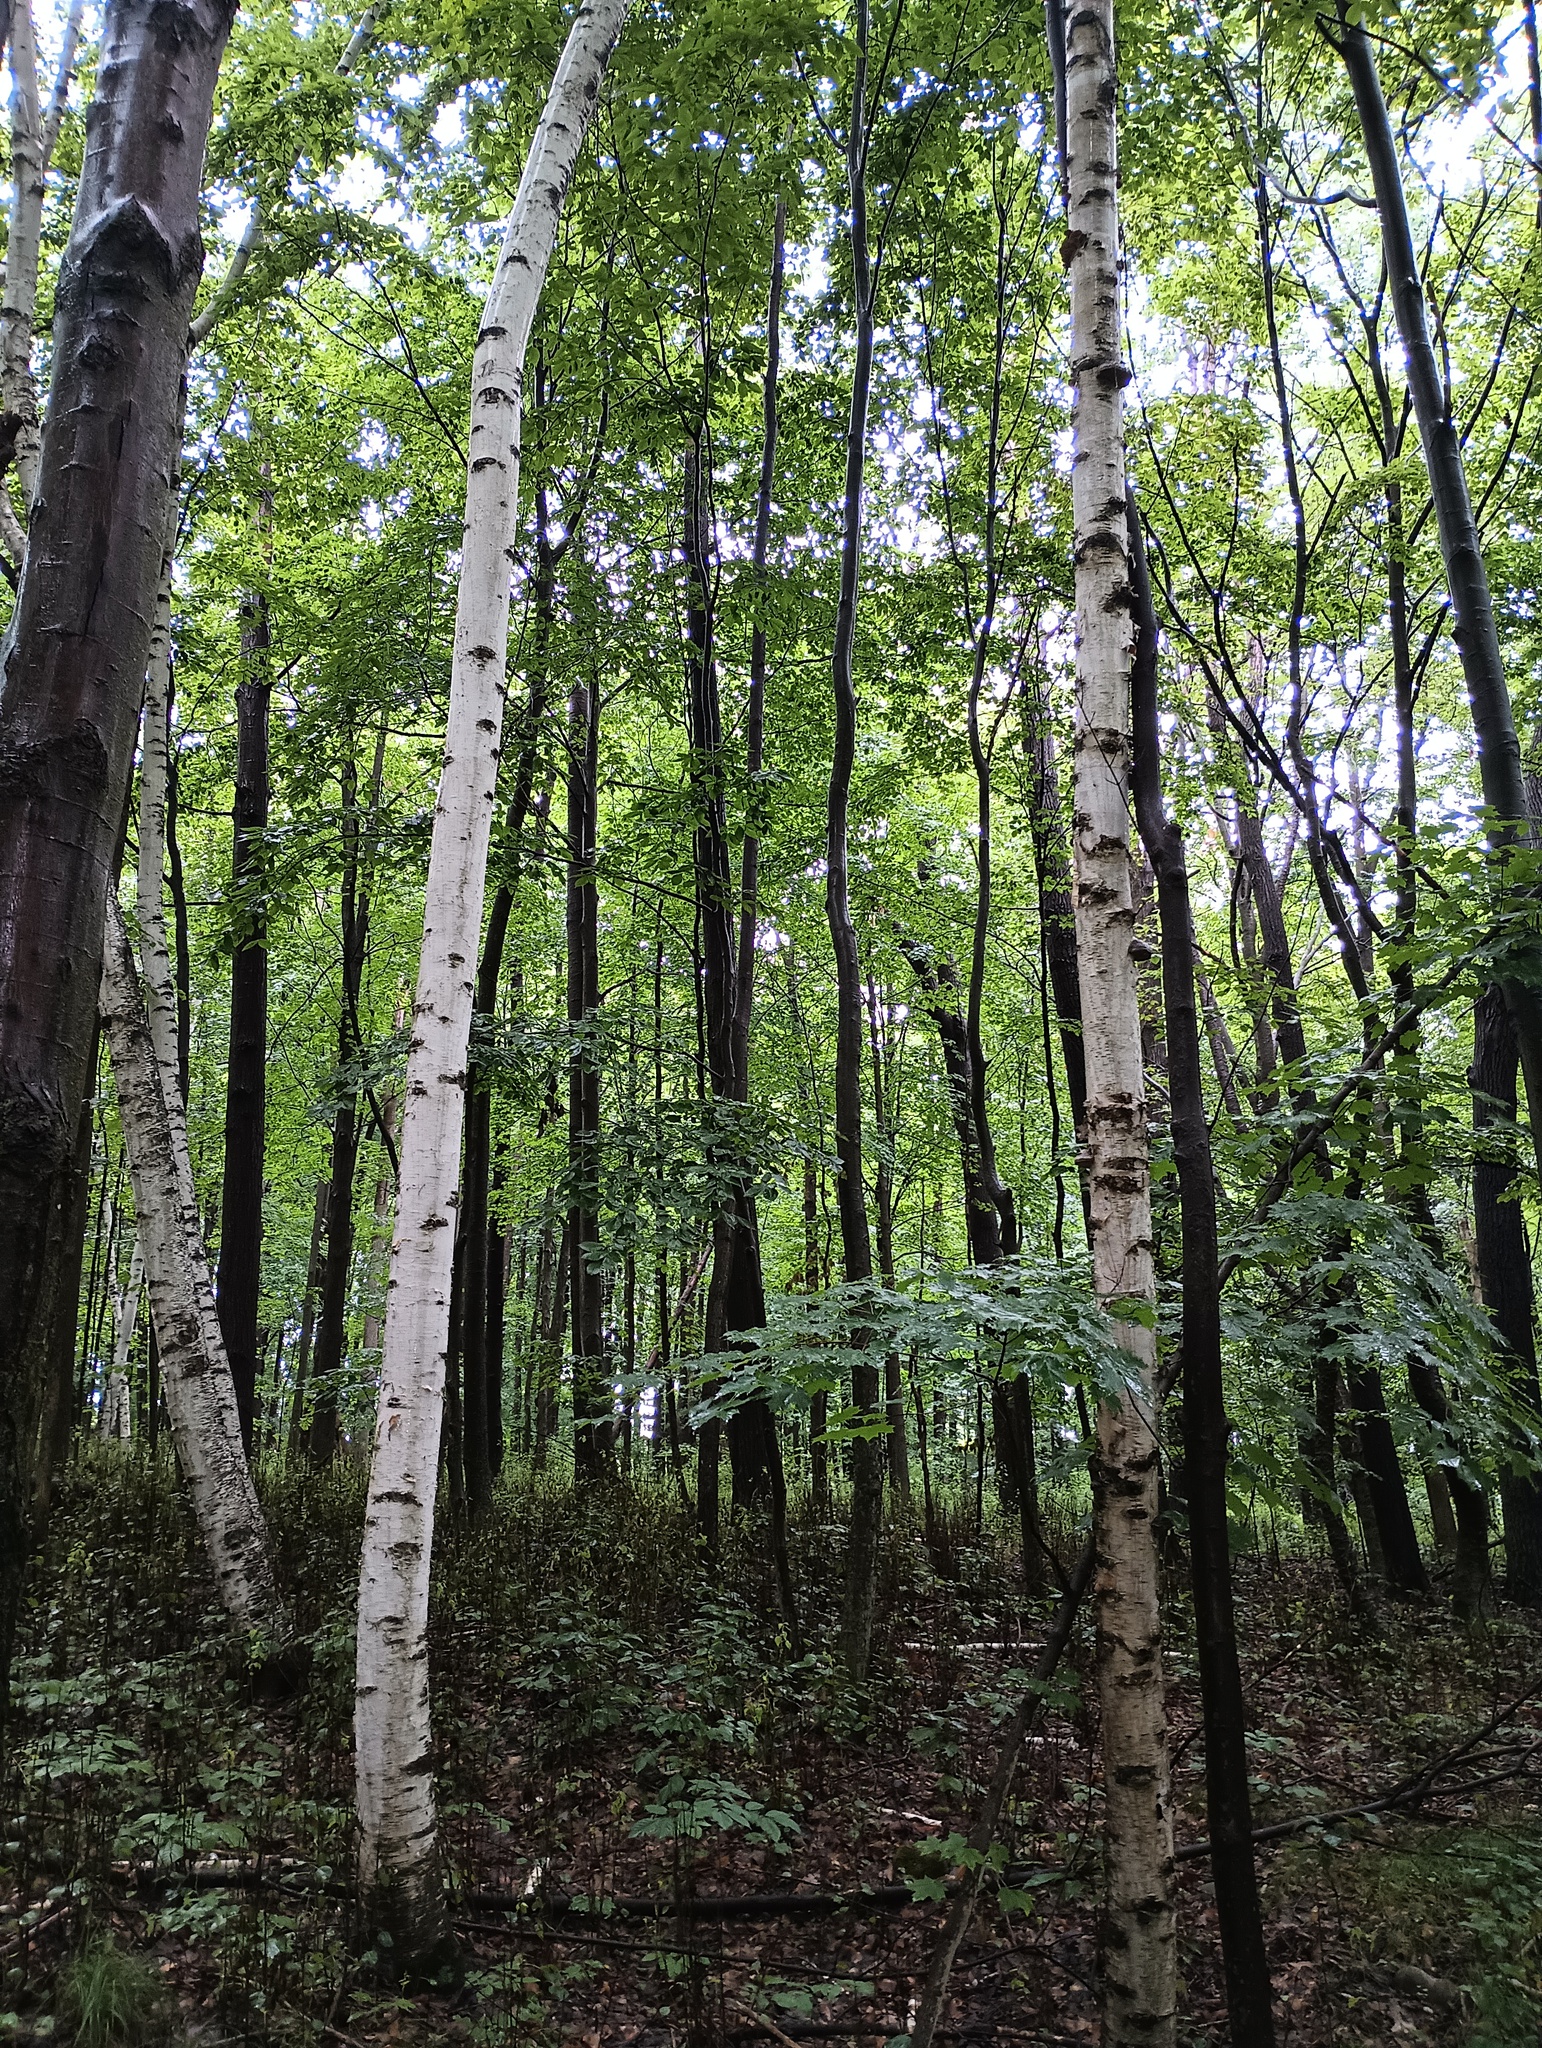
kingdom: Plantae
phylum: Tracheophyta
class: Magnoliopsida
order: Fagales
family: Betulaceae
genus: Betula
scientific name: Betula papyrifera
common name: Paper birch
